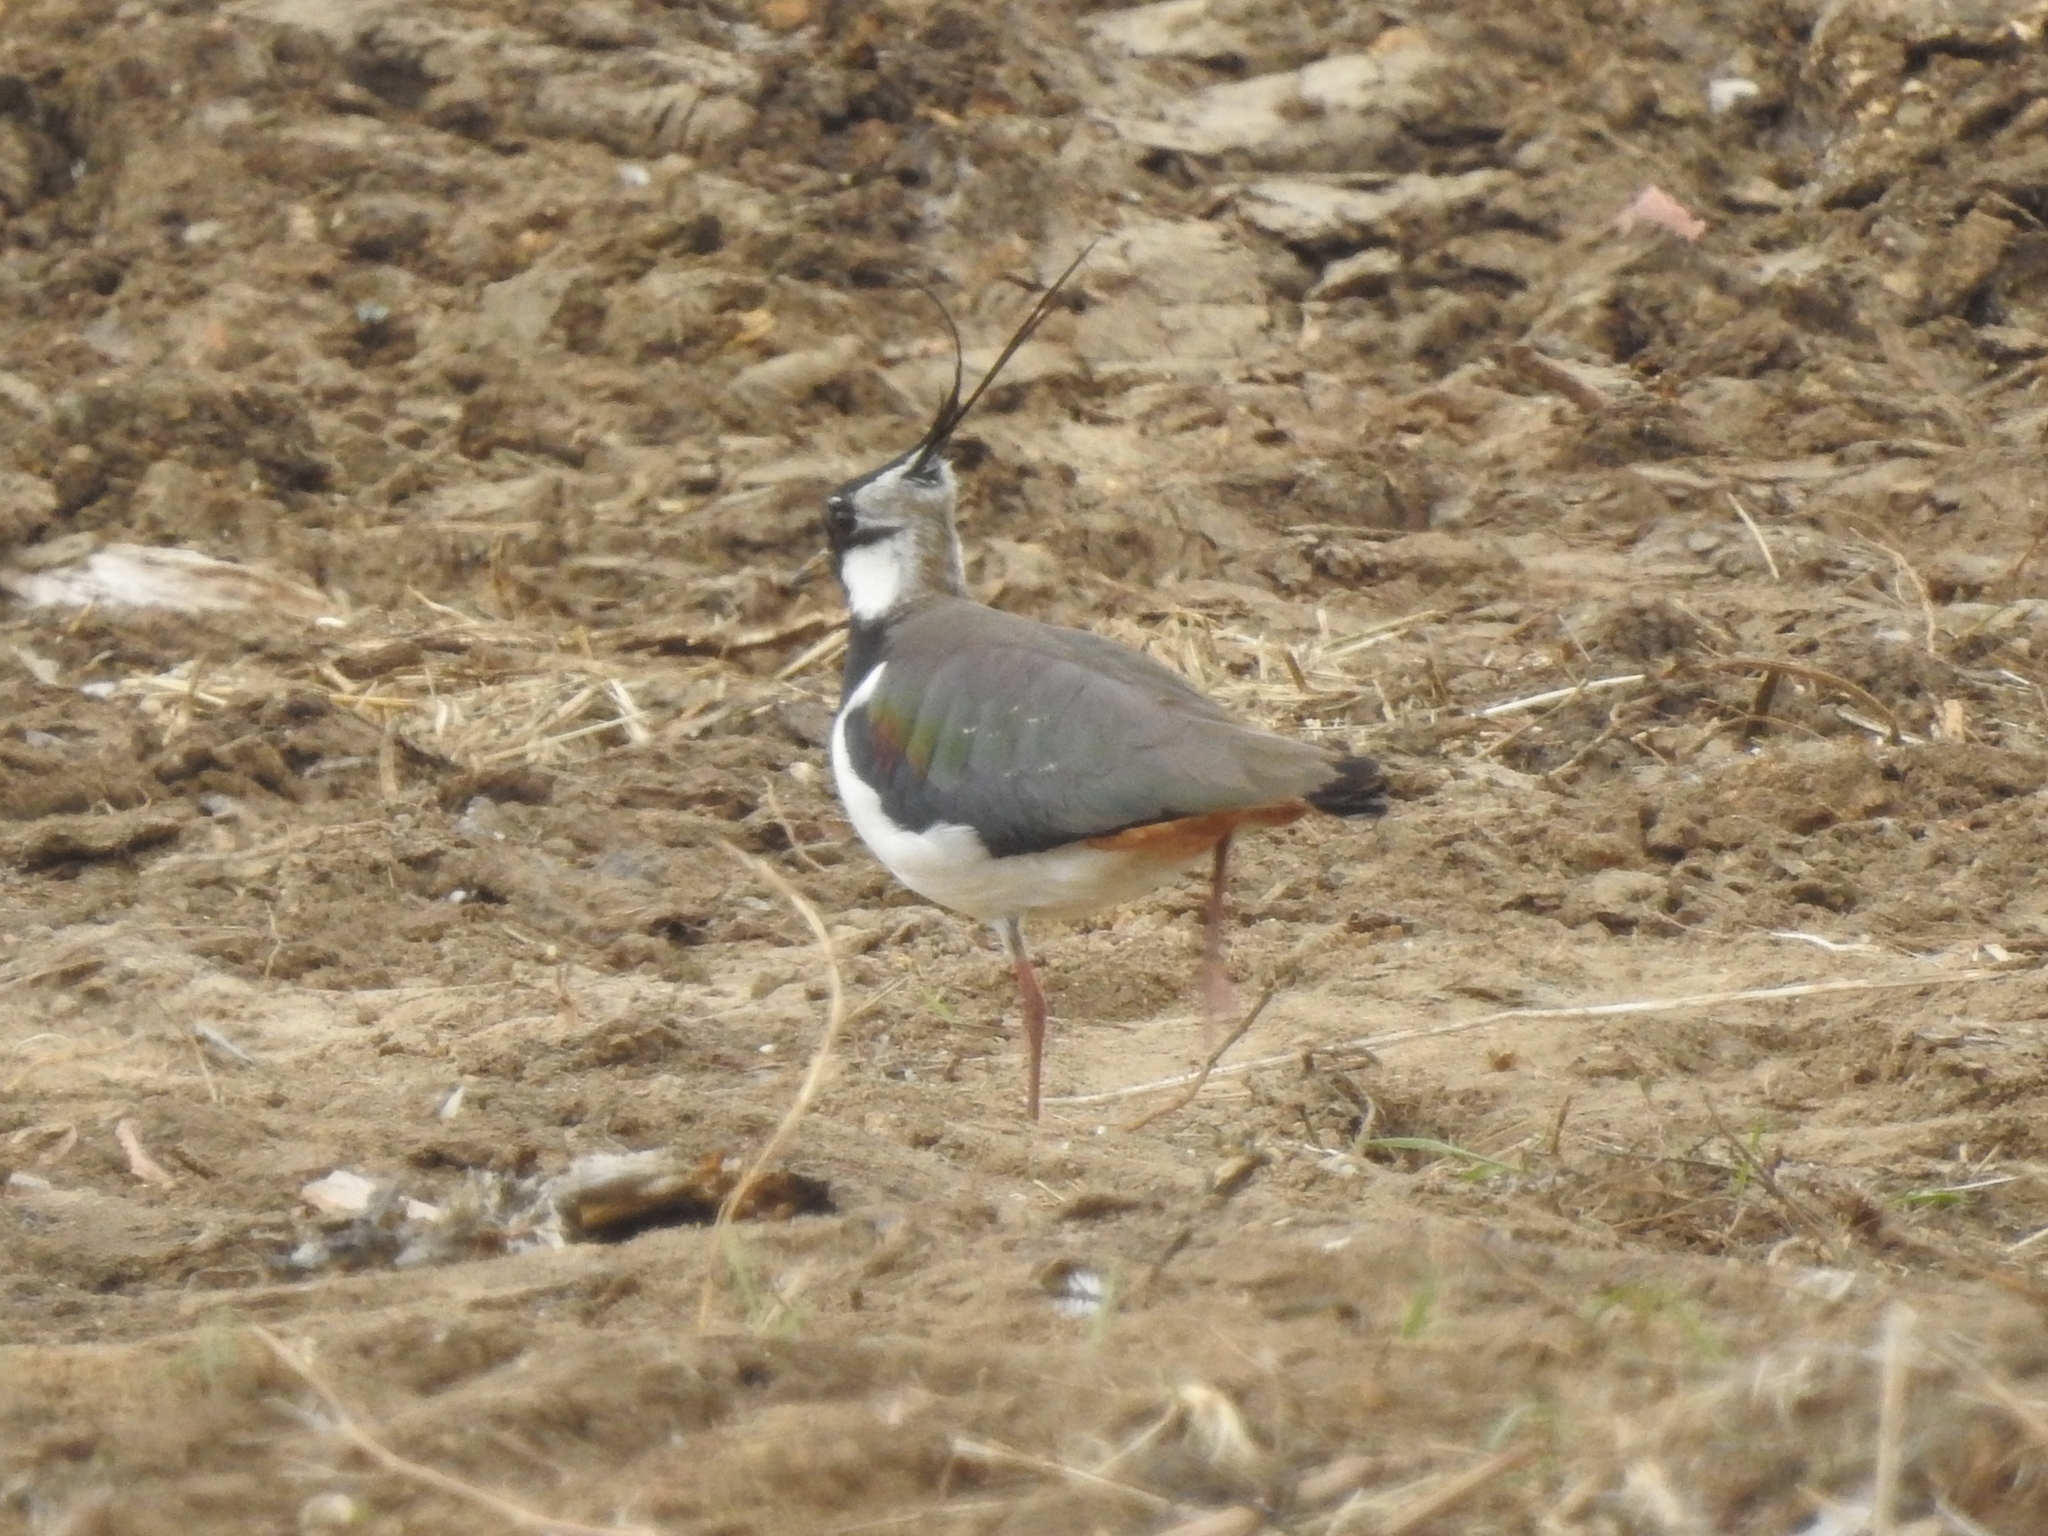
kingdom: Animalia
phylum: Chordata
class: Aves
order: Charadriiformes
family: Charadriidae
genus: Vanellus
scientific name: Vanellus vanellus
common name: Northern lapwing
